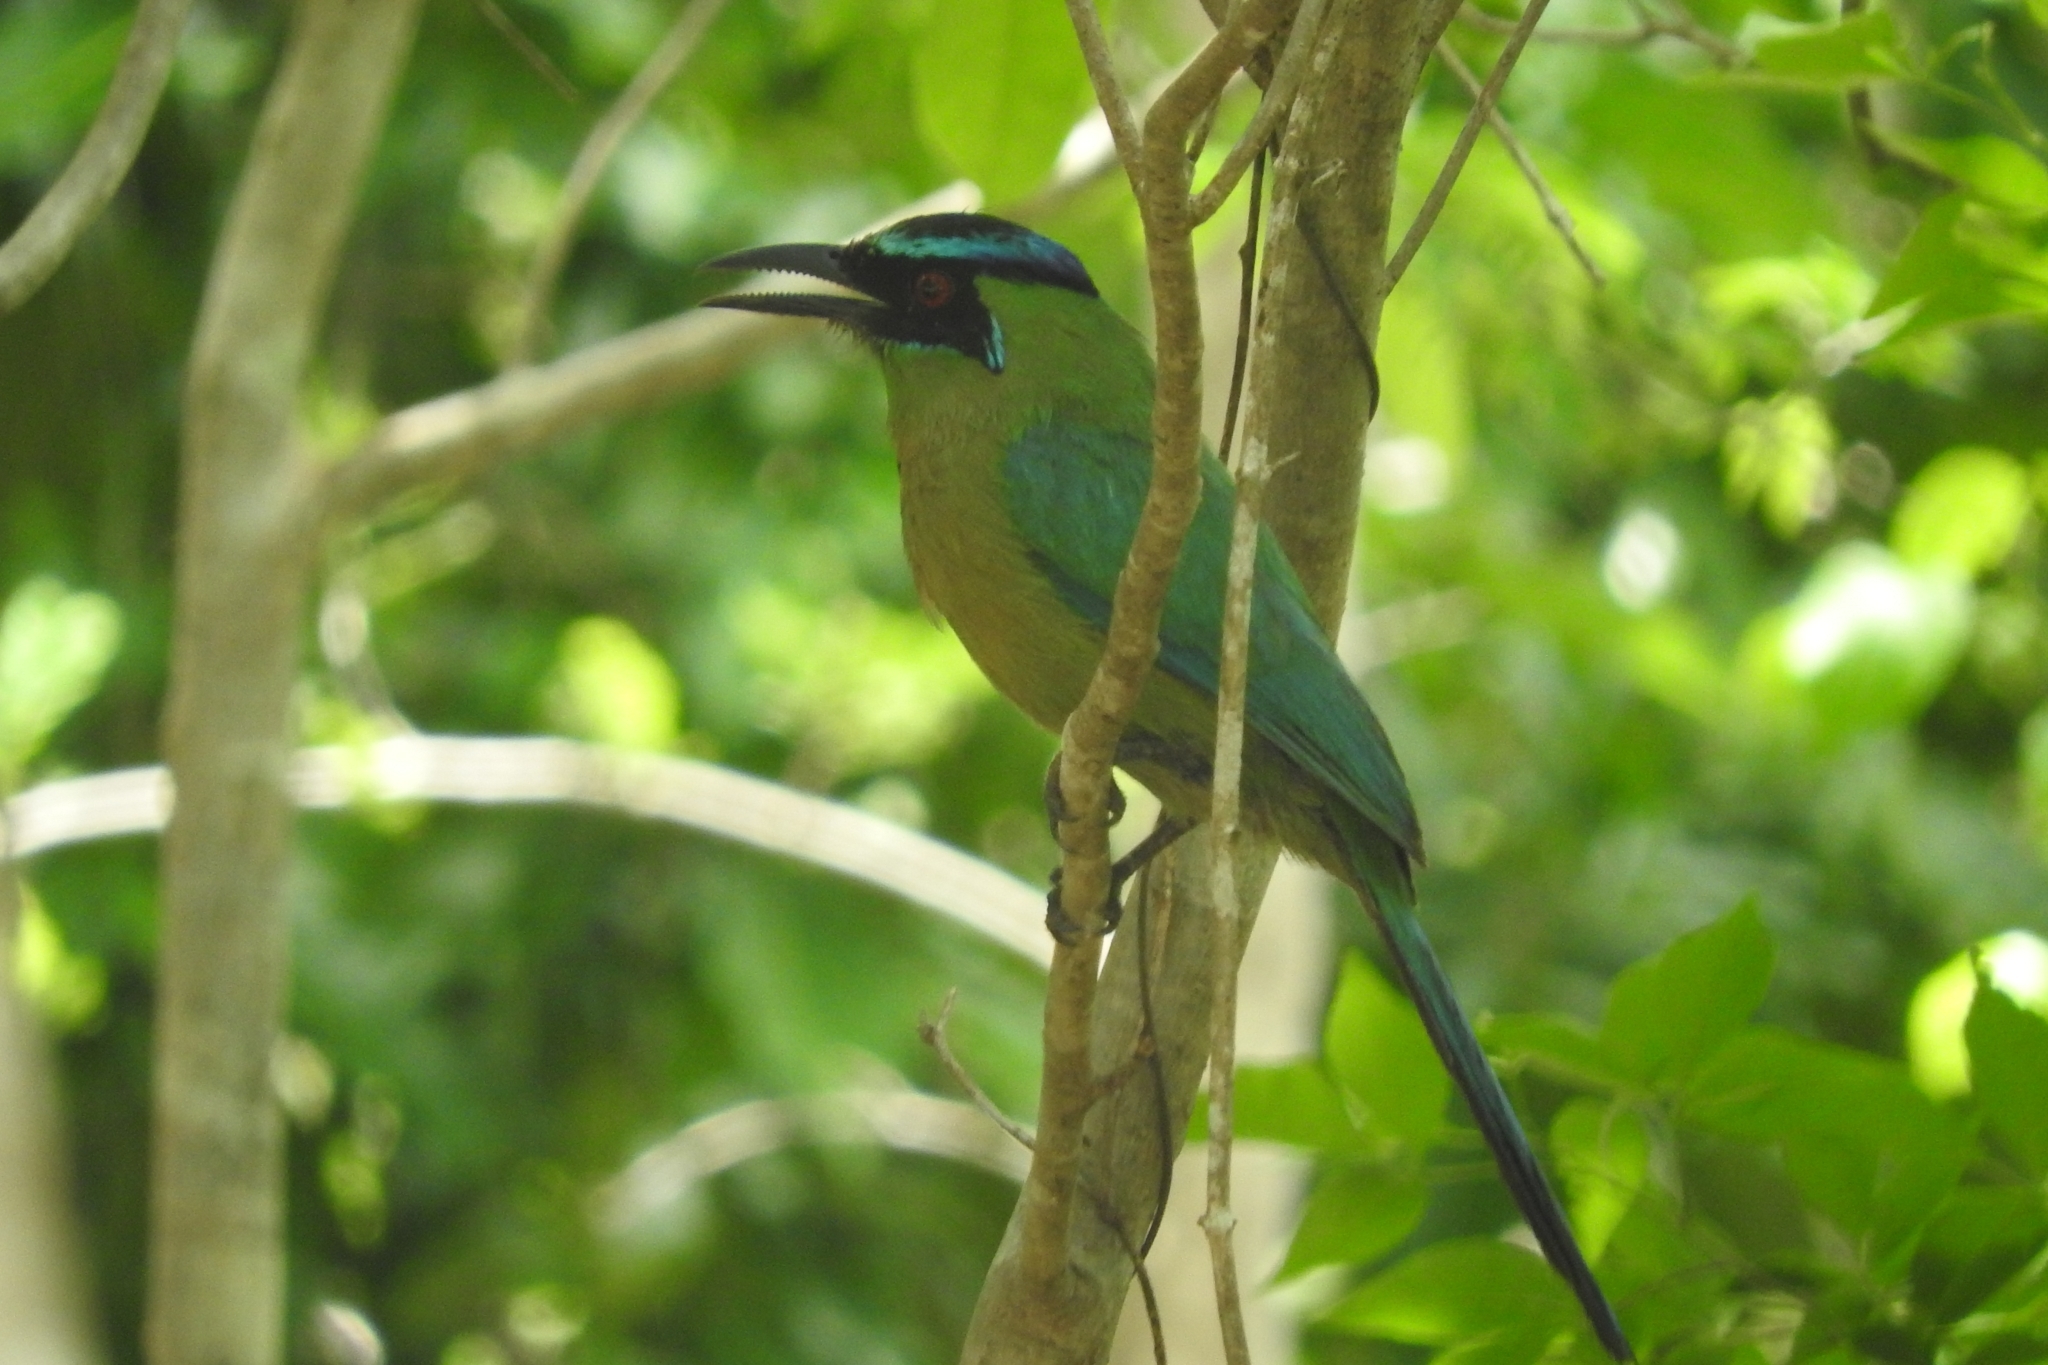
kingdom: Animalia
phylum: Chordata
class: Aves
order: Coraciiformes
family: Momotidae
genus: Momotus
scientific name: Momotus lessonii
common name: Lesson's motmot
